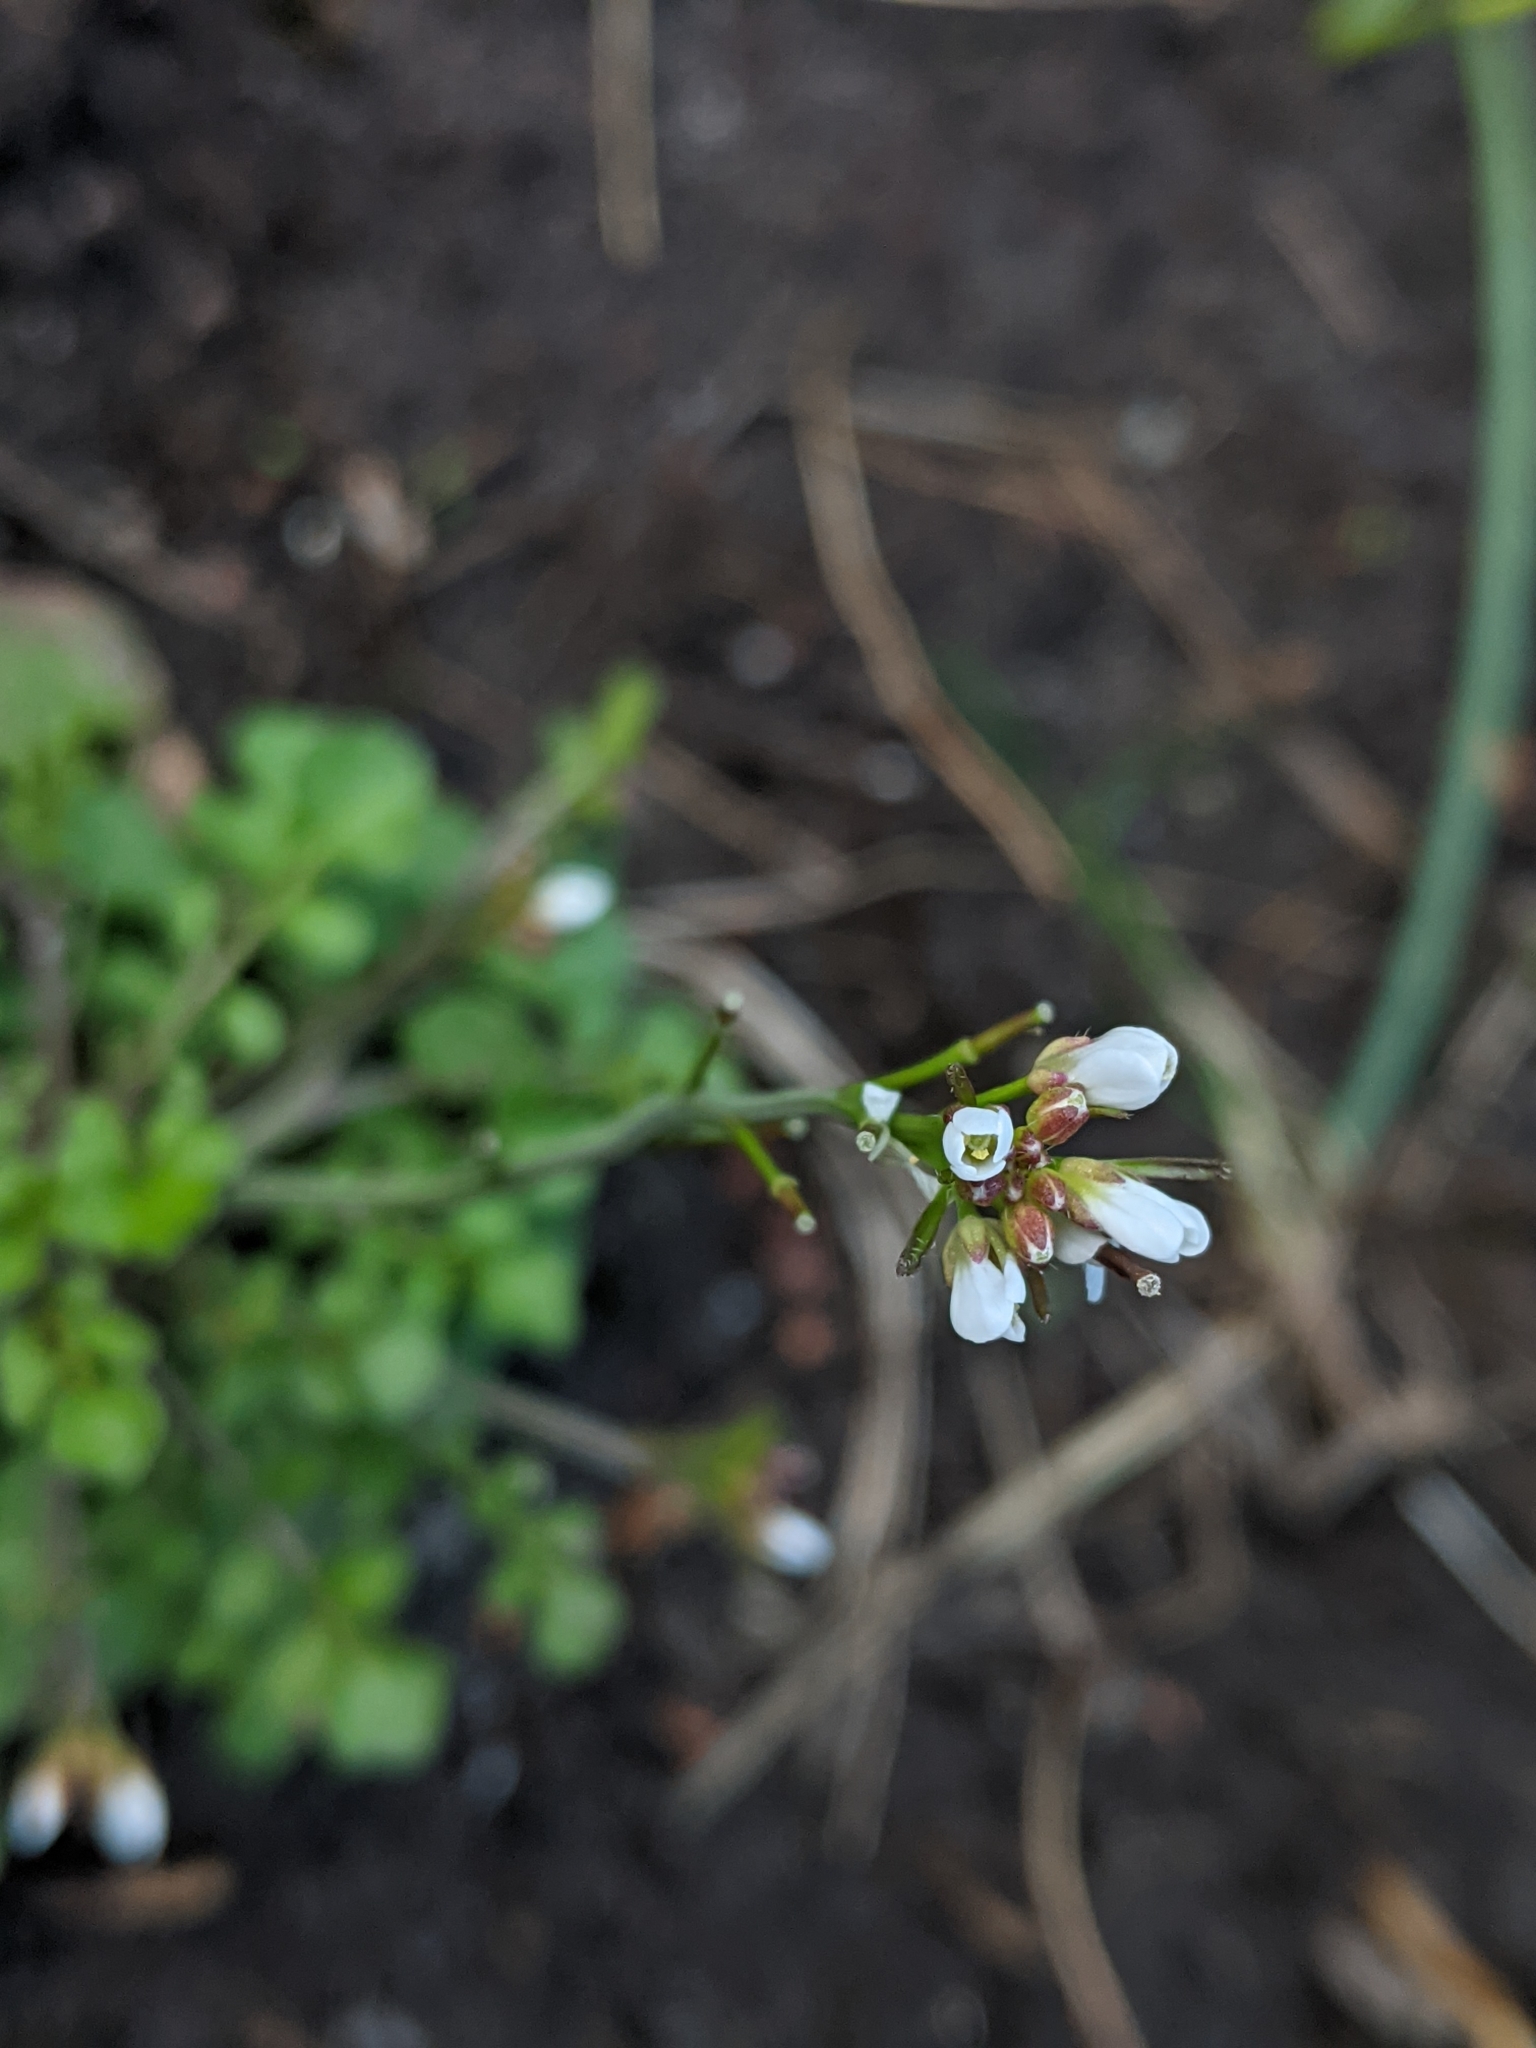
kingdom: Plantae
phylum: Tracheophyta
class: Magnoliopsida
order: Brassicales
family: Brassicaceae
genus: Capsella
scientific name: Capsella bursa-pastoris
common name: Shepherd's purse
